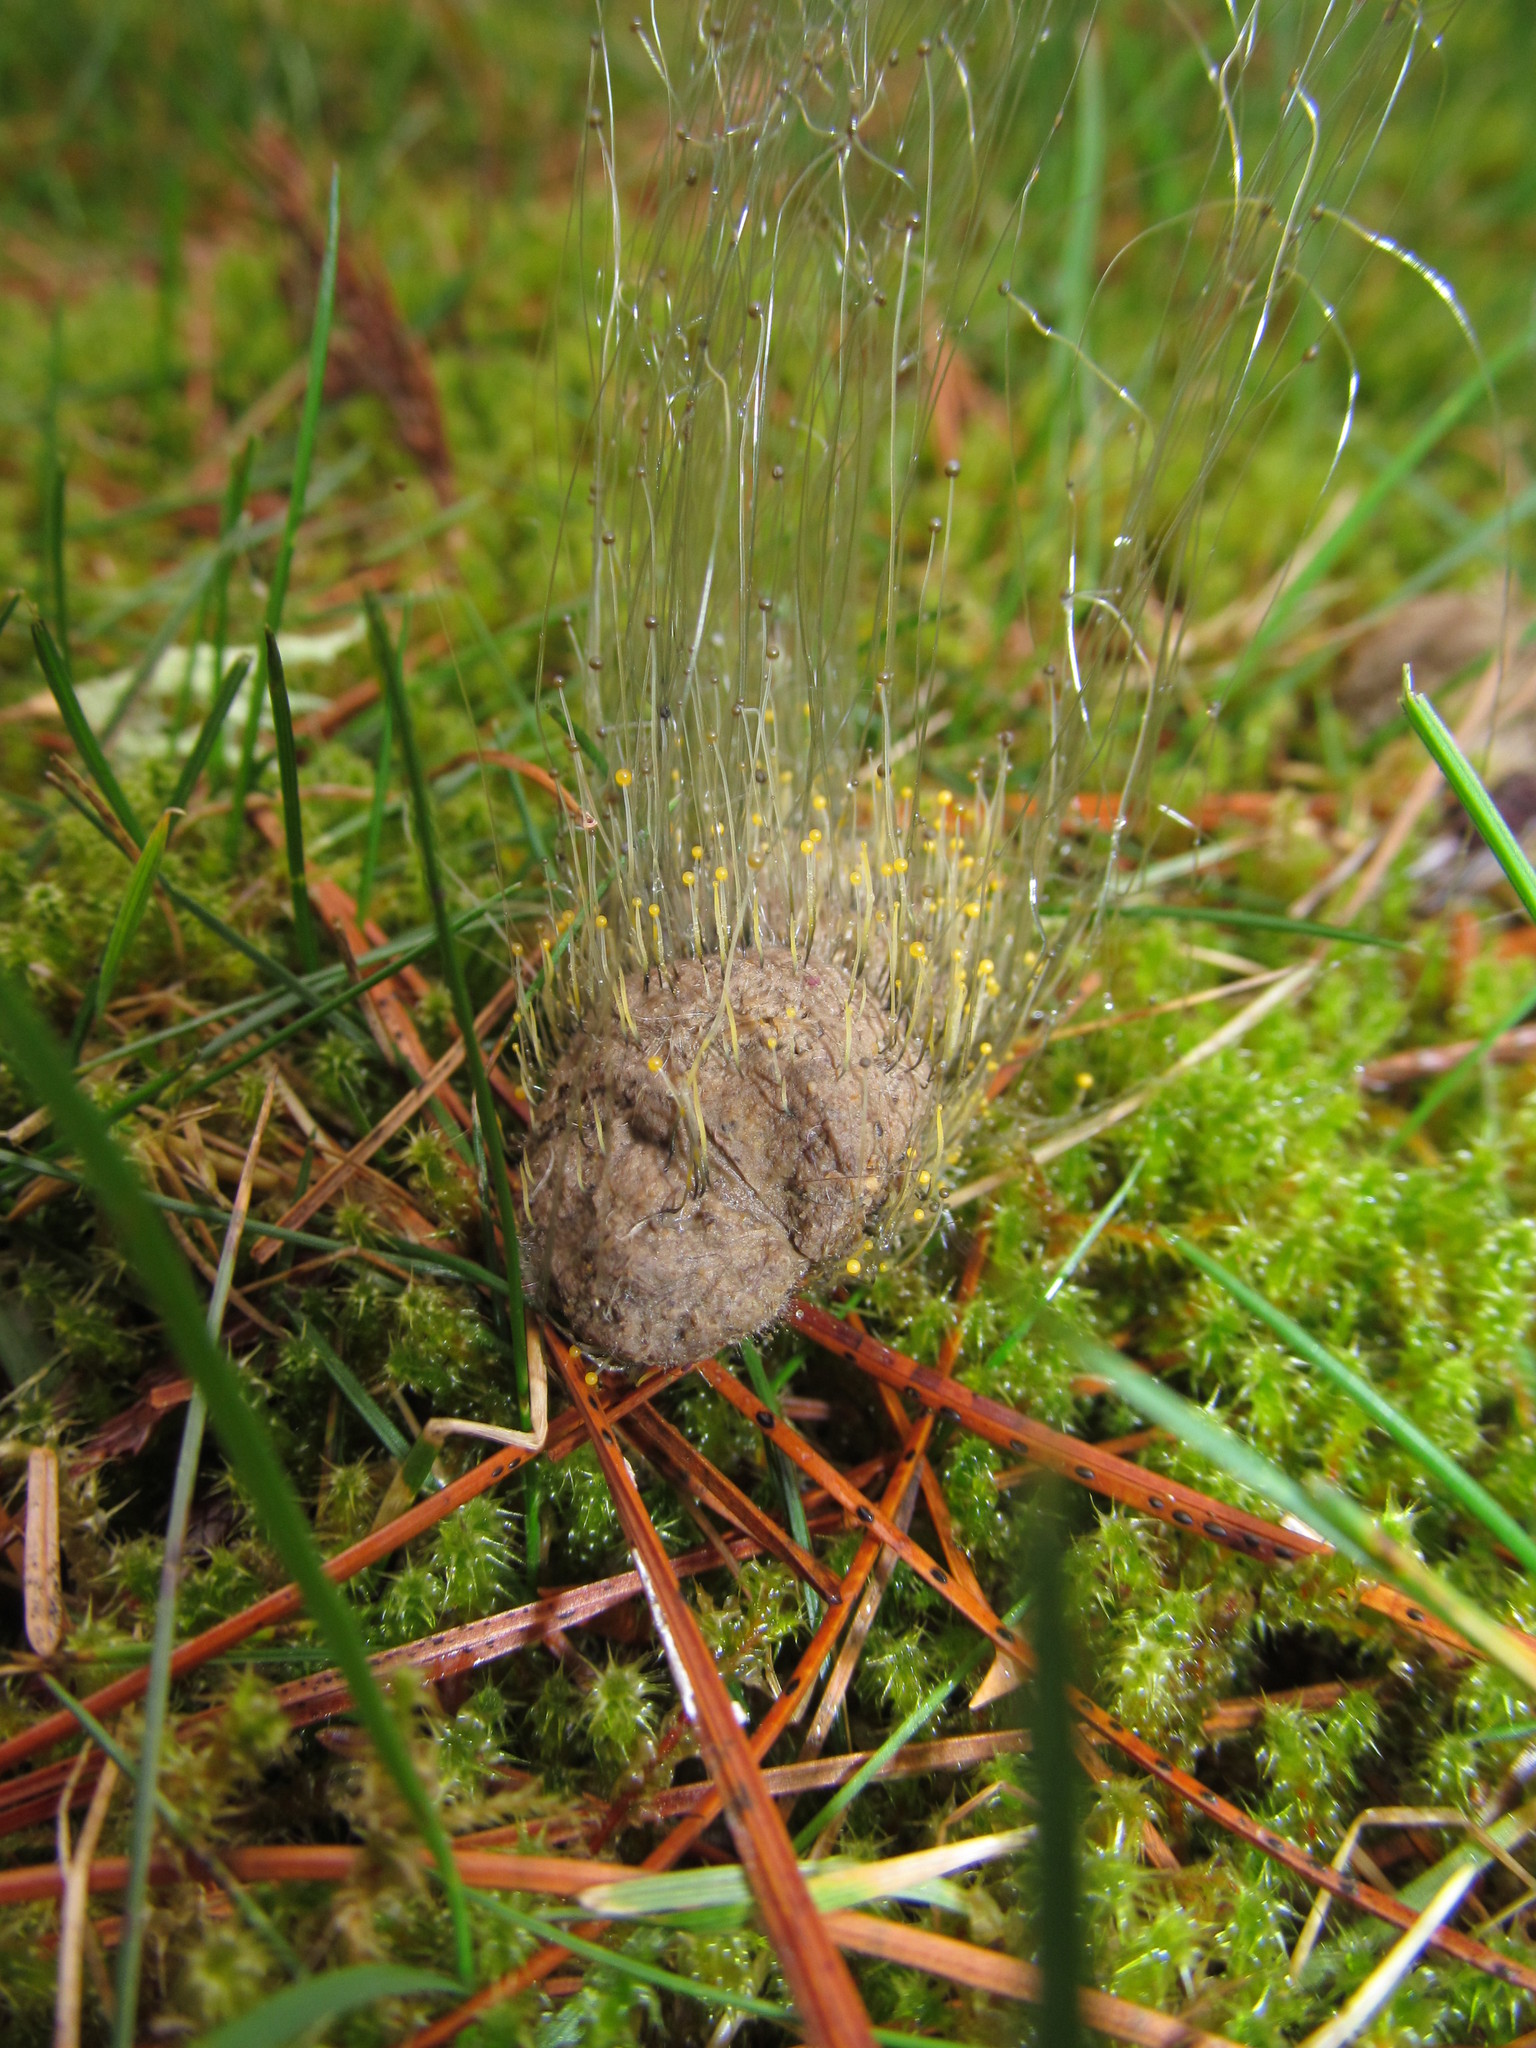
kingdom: Fungi
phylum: Mucoromycota
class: Mucoromycetes
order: Mucorales
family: Phycomycetaceae
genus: Phycomyces
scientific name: Phycomyces
